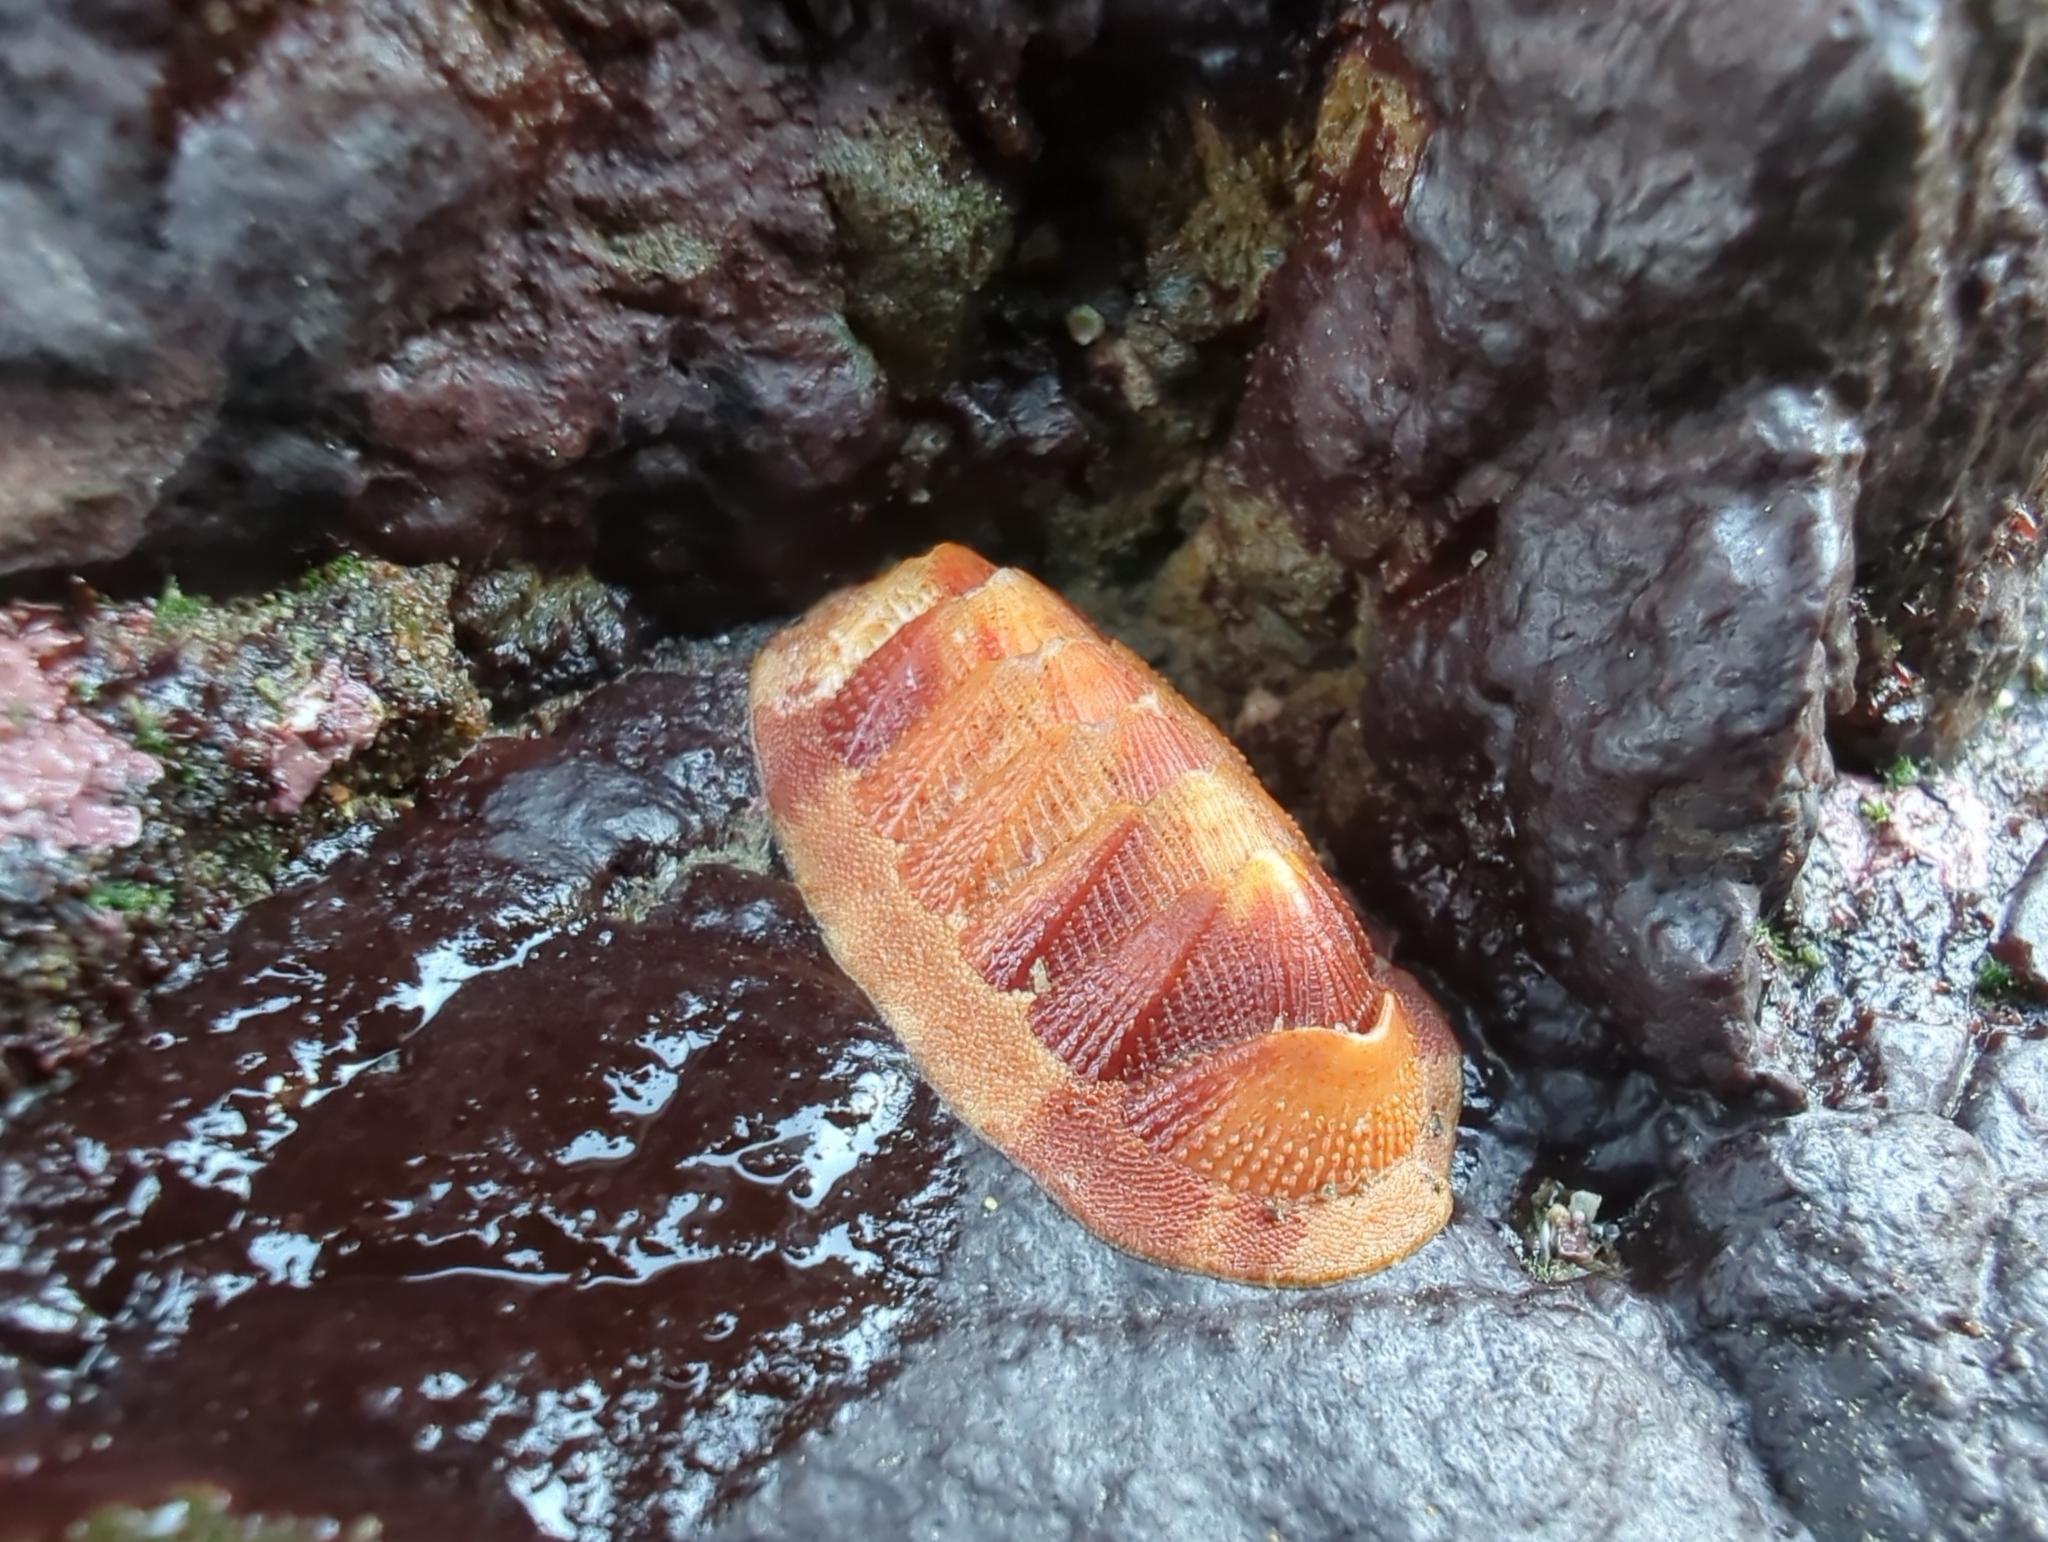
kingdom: Animalia
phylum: Mollusca
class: Polyplacophora
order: Chitonida
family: Ischnochitonidae
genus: Lepidozona
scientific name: Lepidozona mertensii
